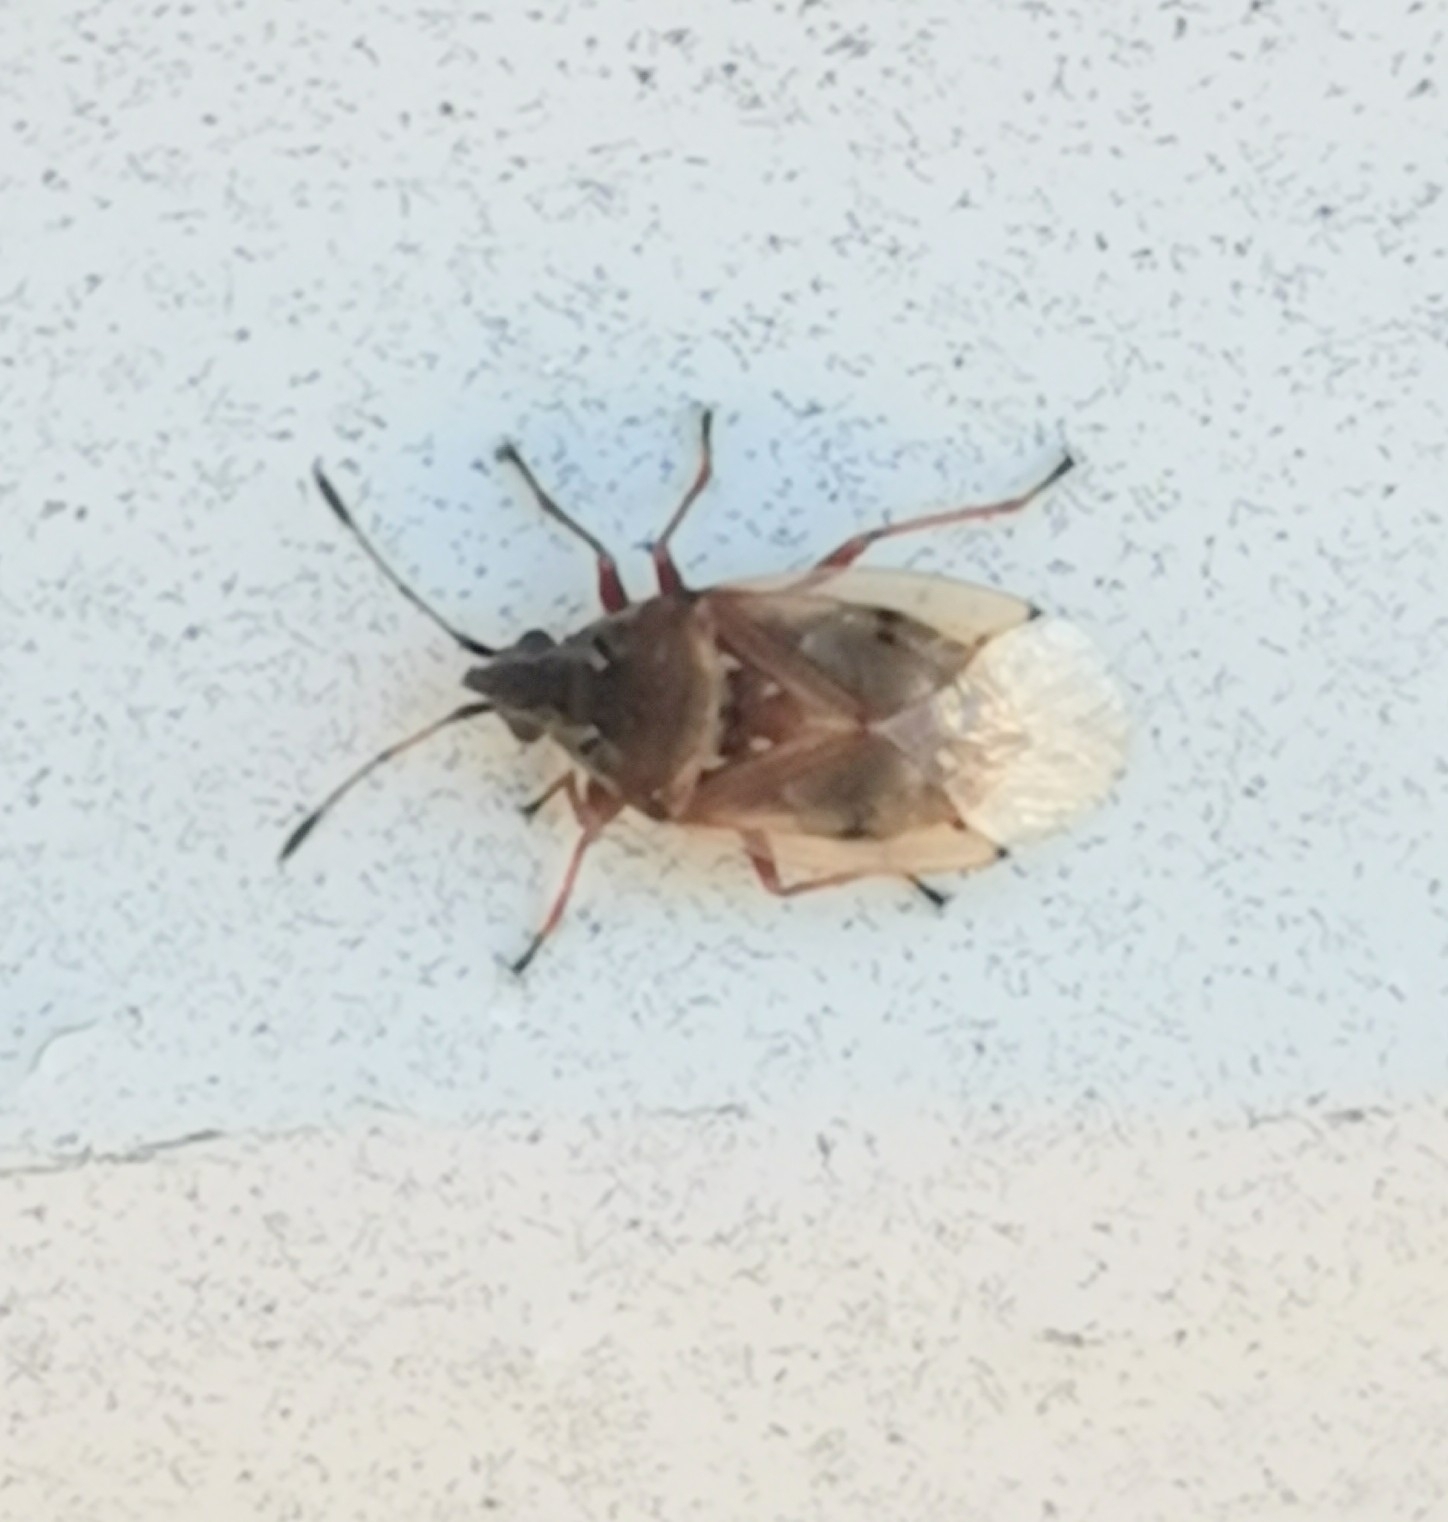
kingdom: Animalia
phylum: Arthropoda
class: Insecta
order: Hemiptera
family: Lygaeidae
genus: Kleidocerys
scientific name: Kleidocerys resedae
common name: Birch catkin bug
